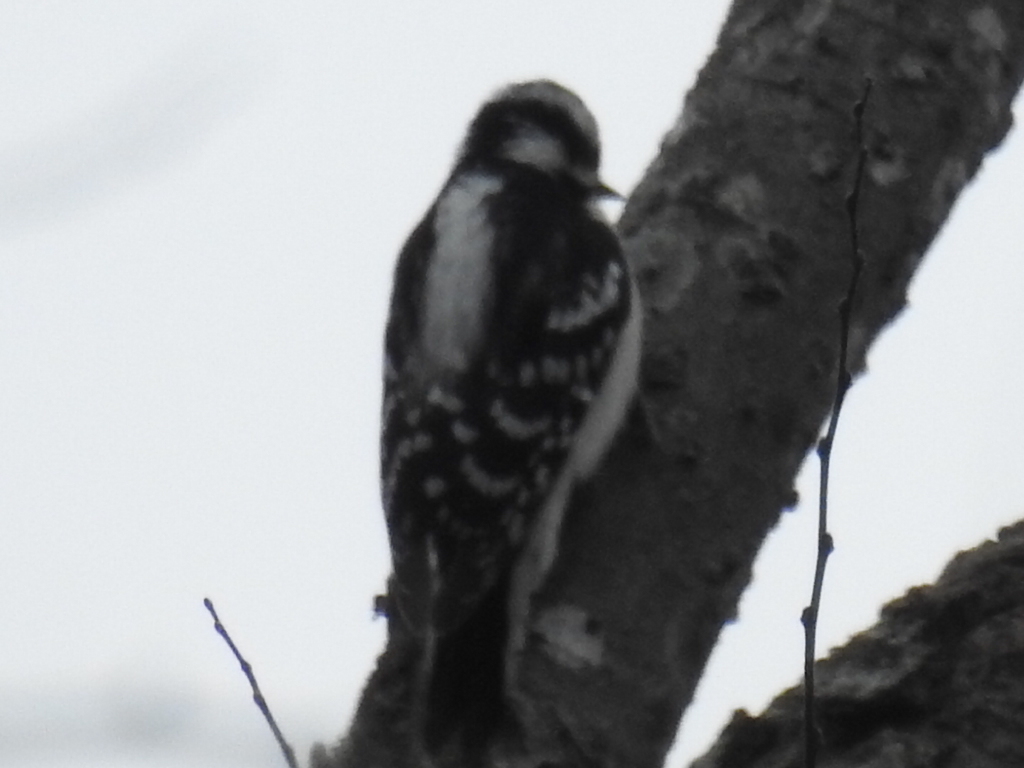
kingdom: Animalia
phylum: Chordata
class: Aves
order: Piciformes
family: Picidae
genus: Dryobates
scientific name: Dryobates pubescens
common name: Downy woodpecker
